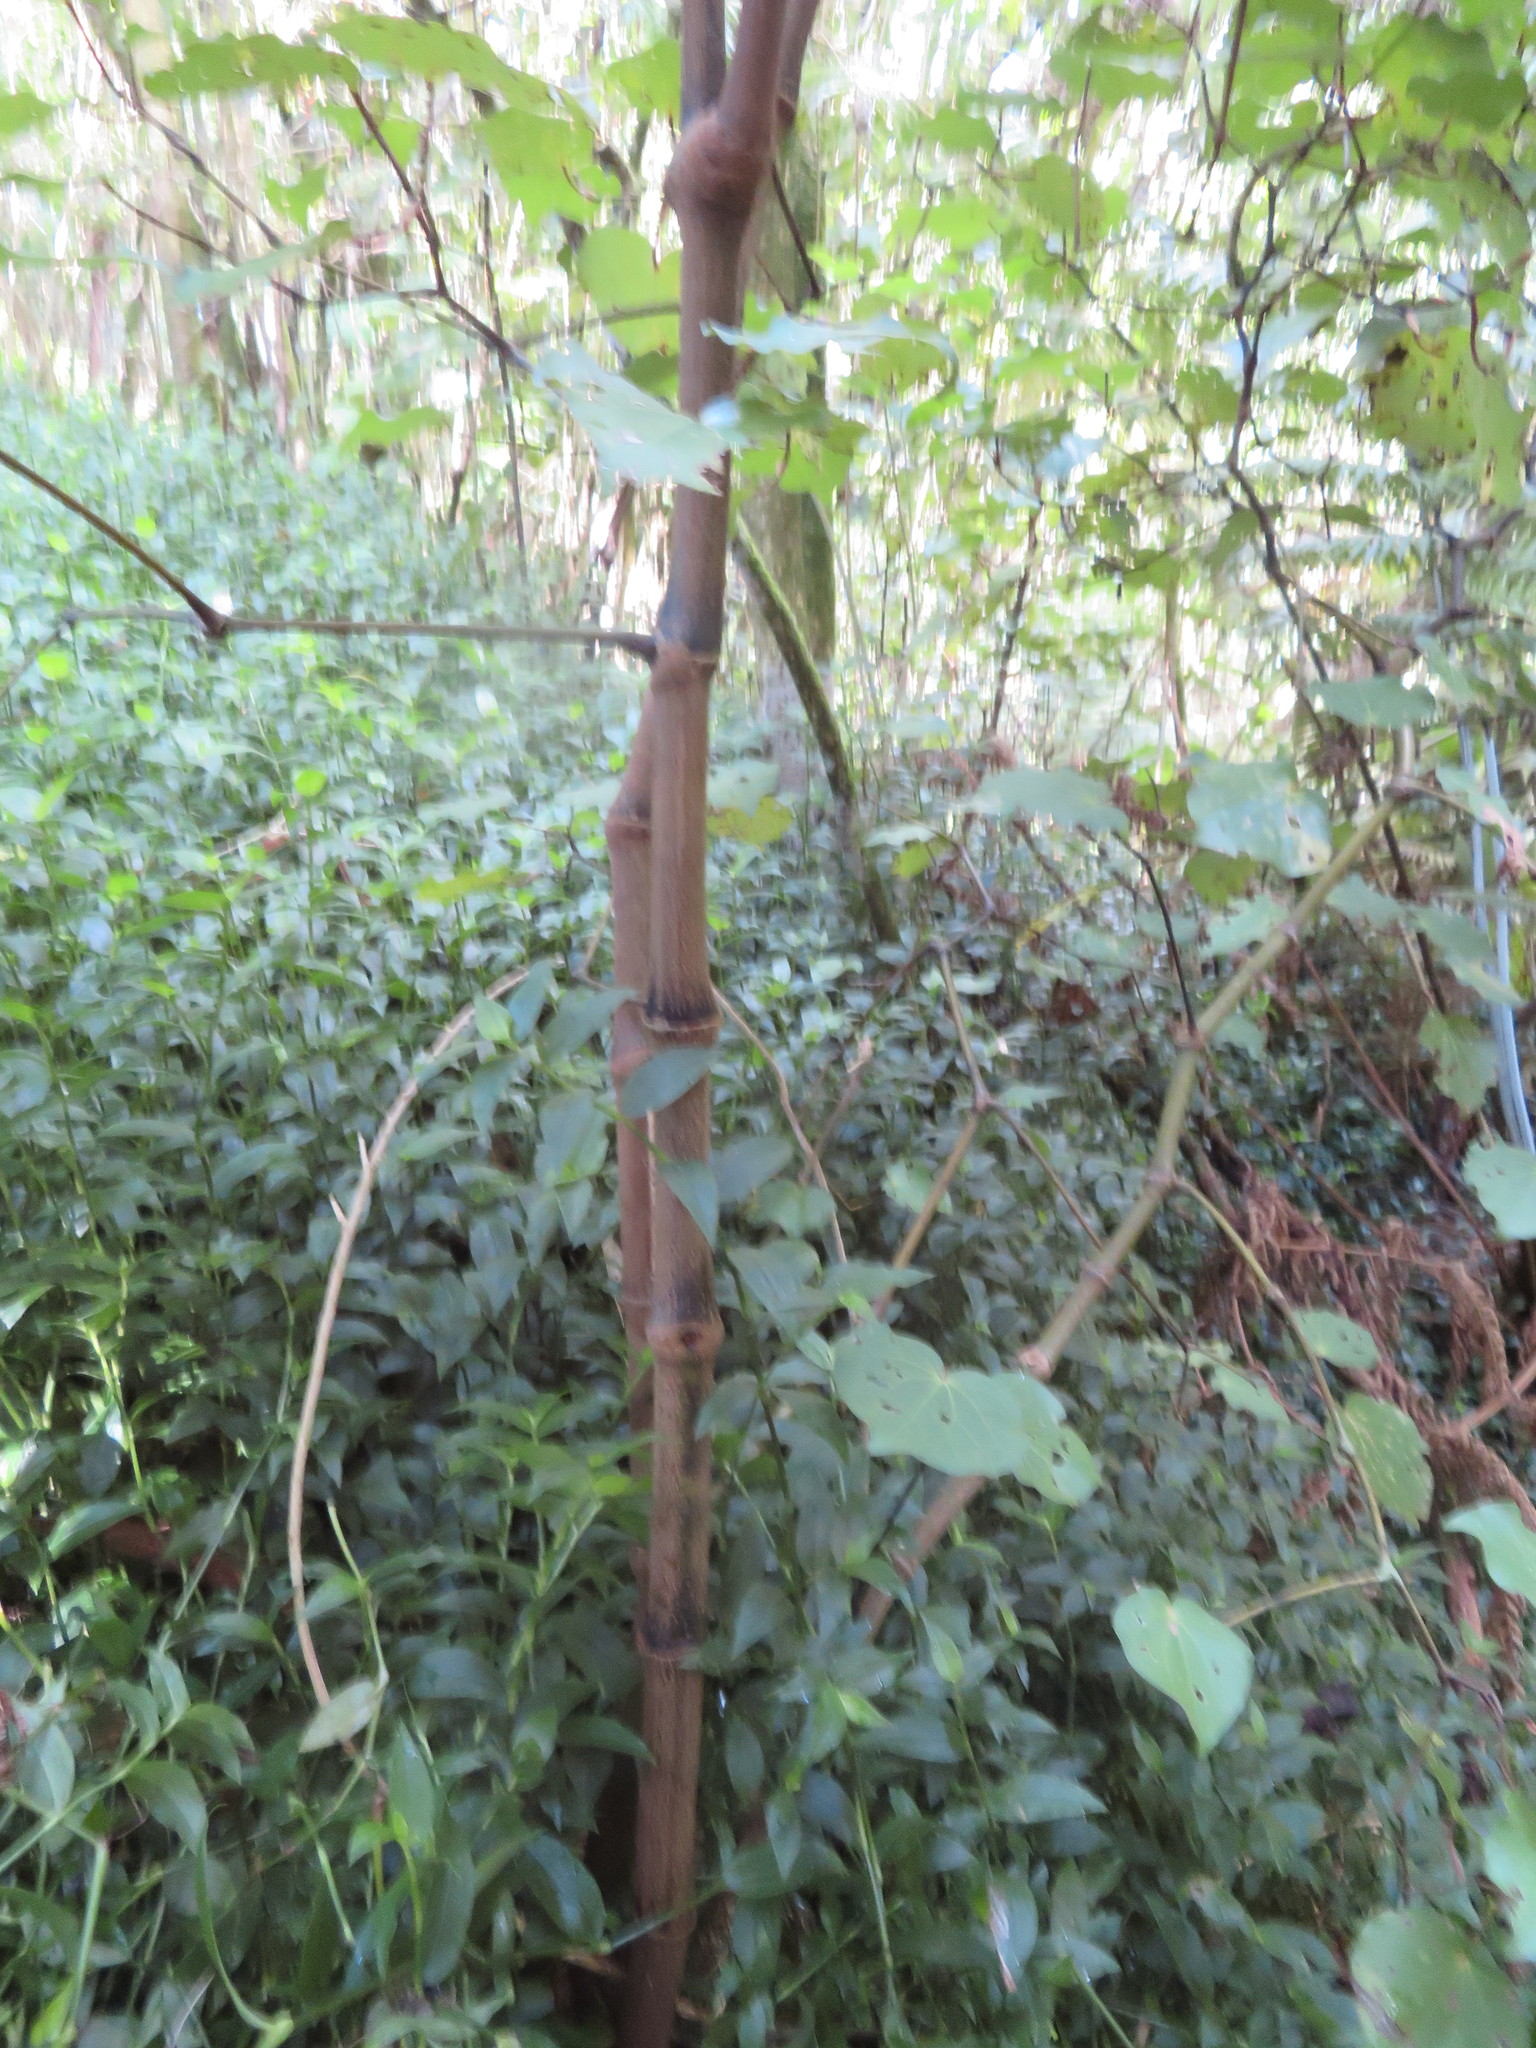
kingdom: Plantae
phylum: Tracheophyta
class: Magnoliopsida
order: Piperales
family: Piperaceae
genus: Macropiper
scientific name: Macropiper excelsum
